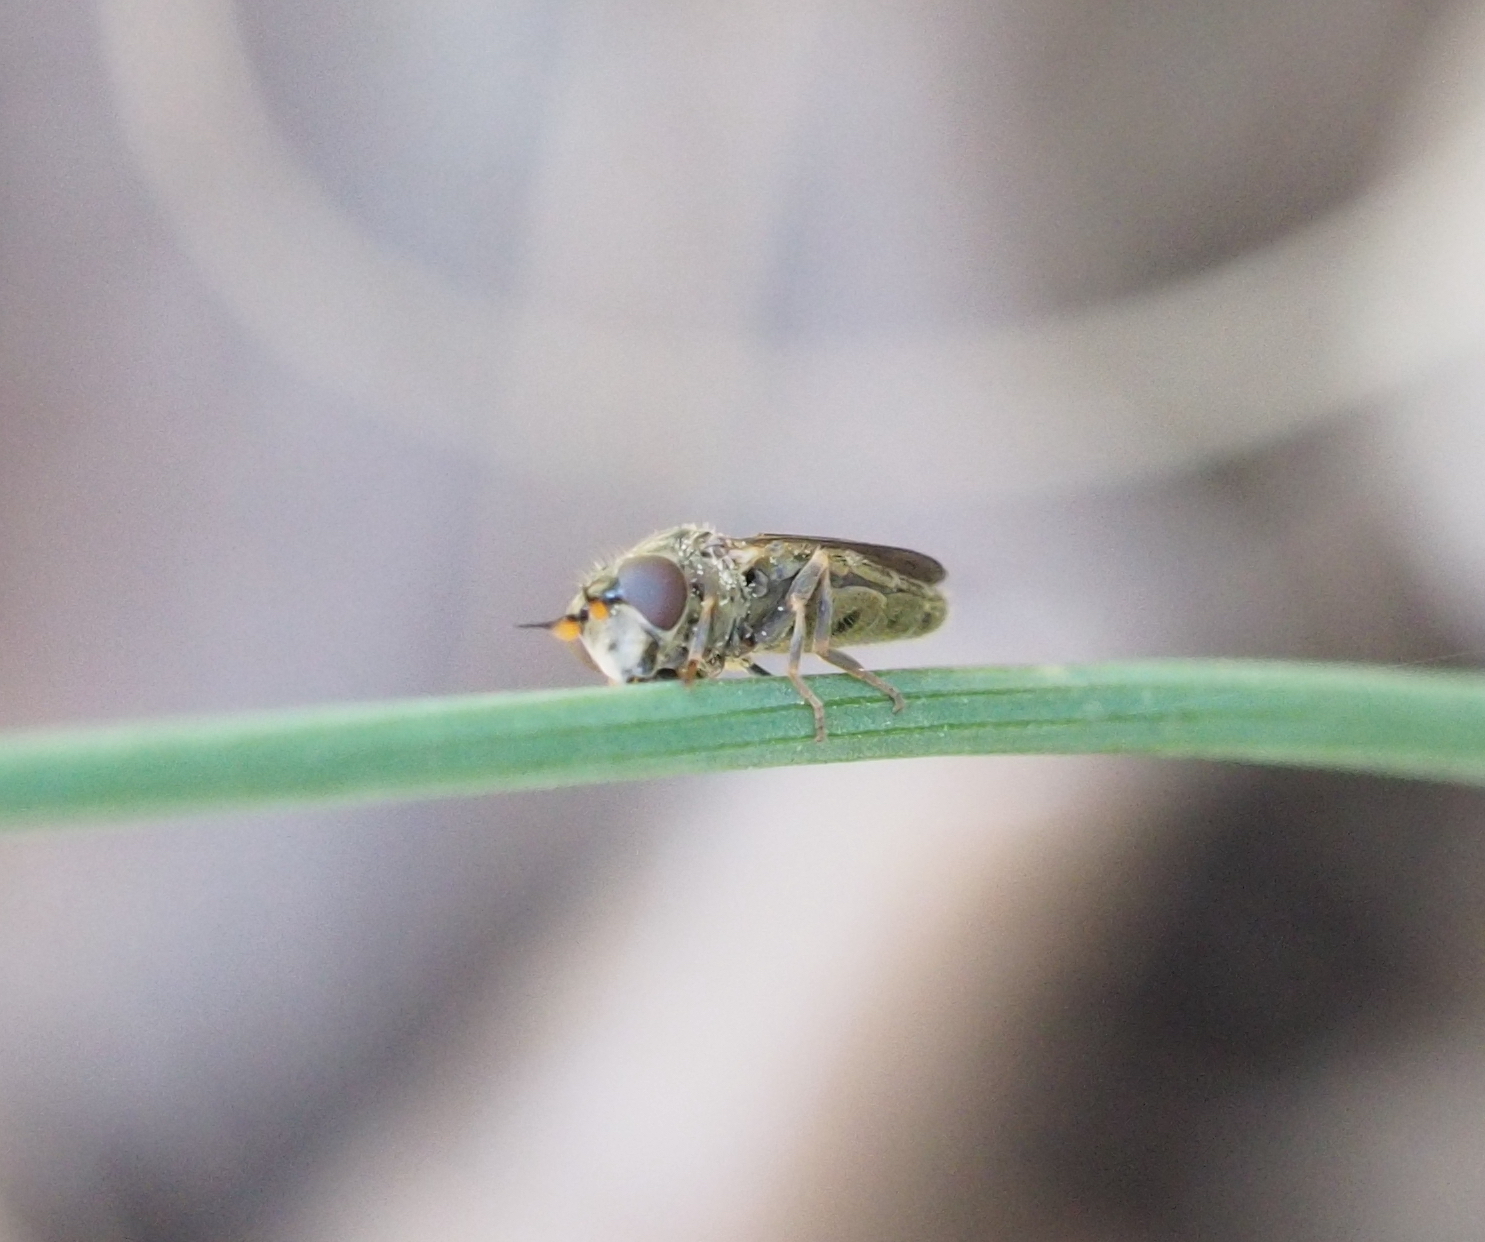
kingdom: Animalia
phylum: Arthropoda
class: Insecta
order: Diptera
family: Syrphidae
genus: Pseudopelecocera
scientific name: Pseudopelecocera latifrons
